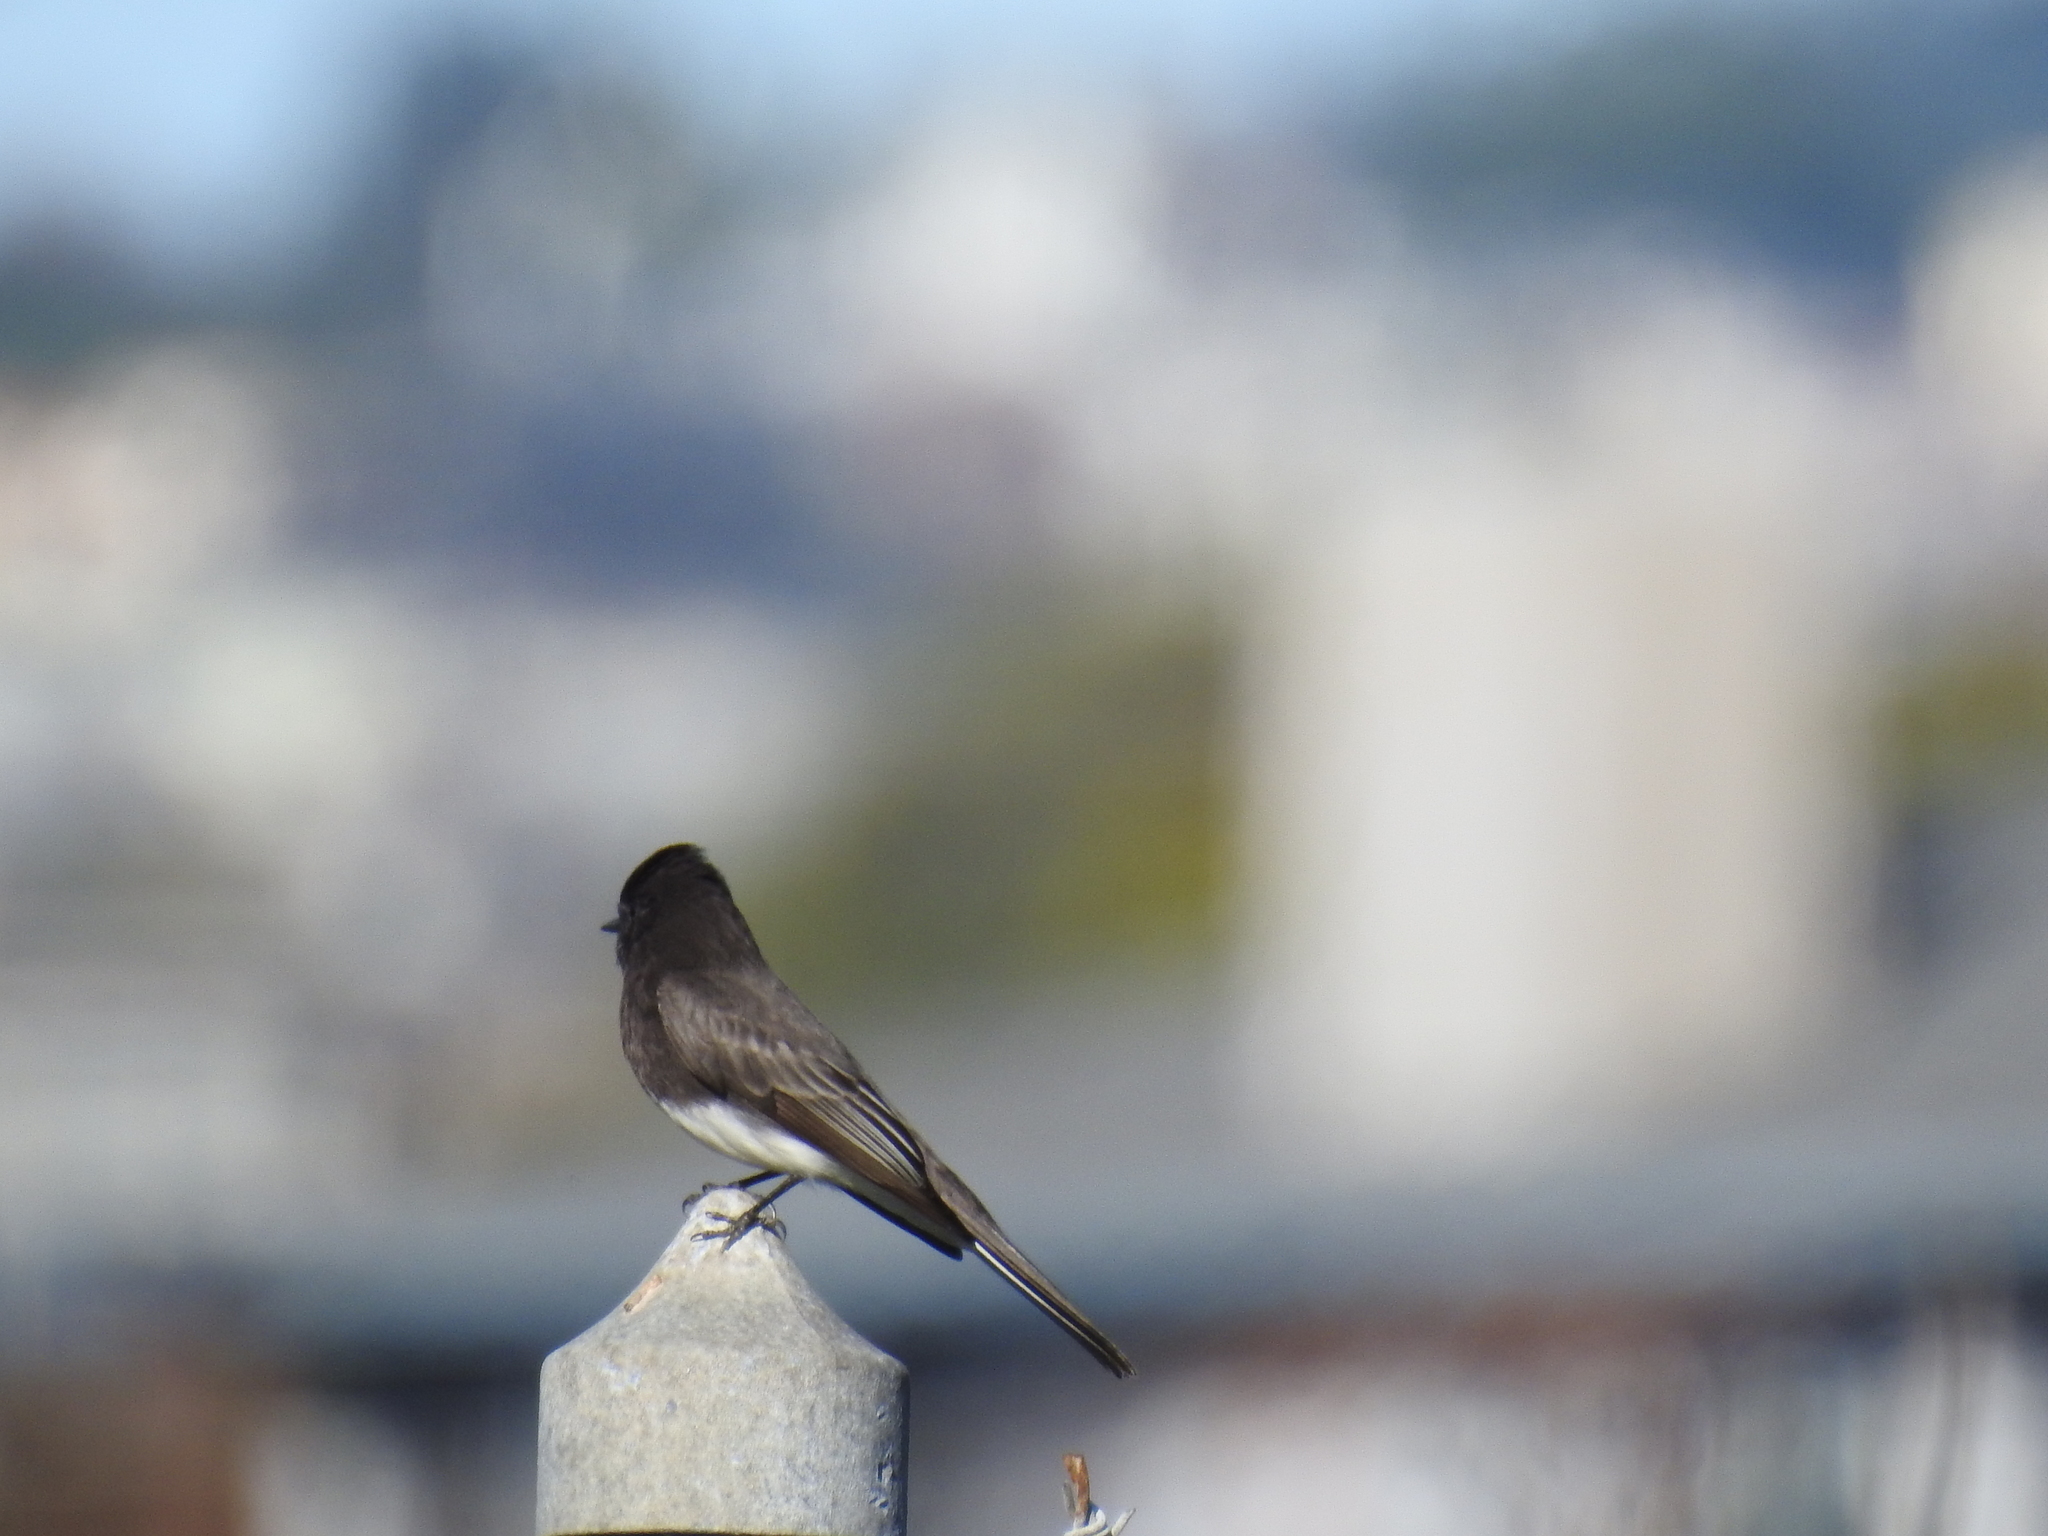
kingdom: Animalia
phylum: Chordata
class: Aves
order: Passeriformes
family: Tyrannidae
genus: Sayornis
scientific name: Sayornis nigricans
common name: Black phoebe
